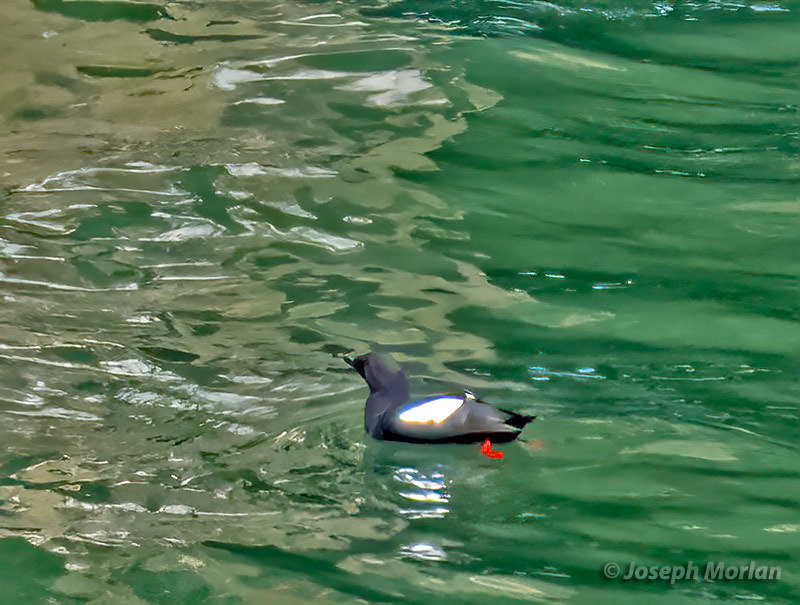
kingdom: Animalia
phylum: Chordata
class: Aves
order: Charadriiformes
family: Alcidae
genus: Cepphus
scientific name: Cepphus columba
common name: Pigeon guillemot
